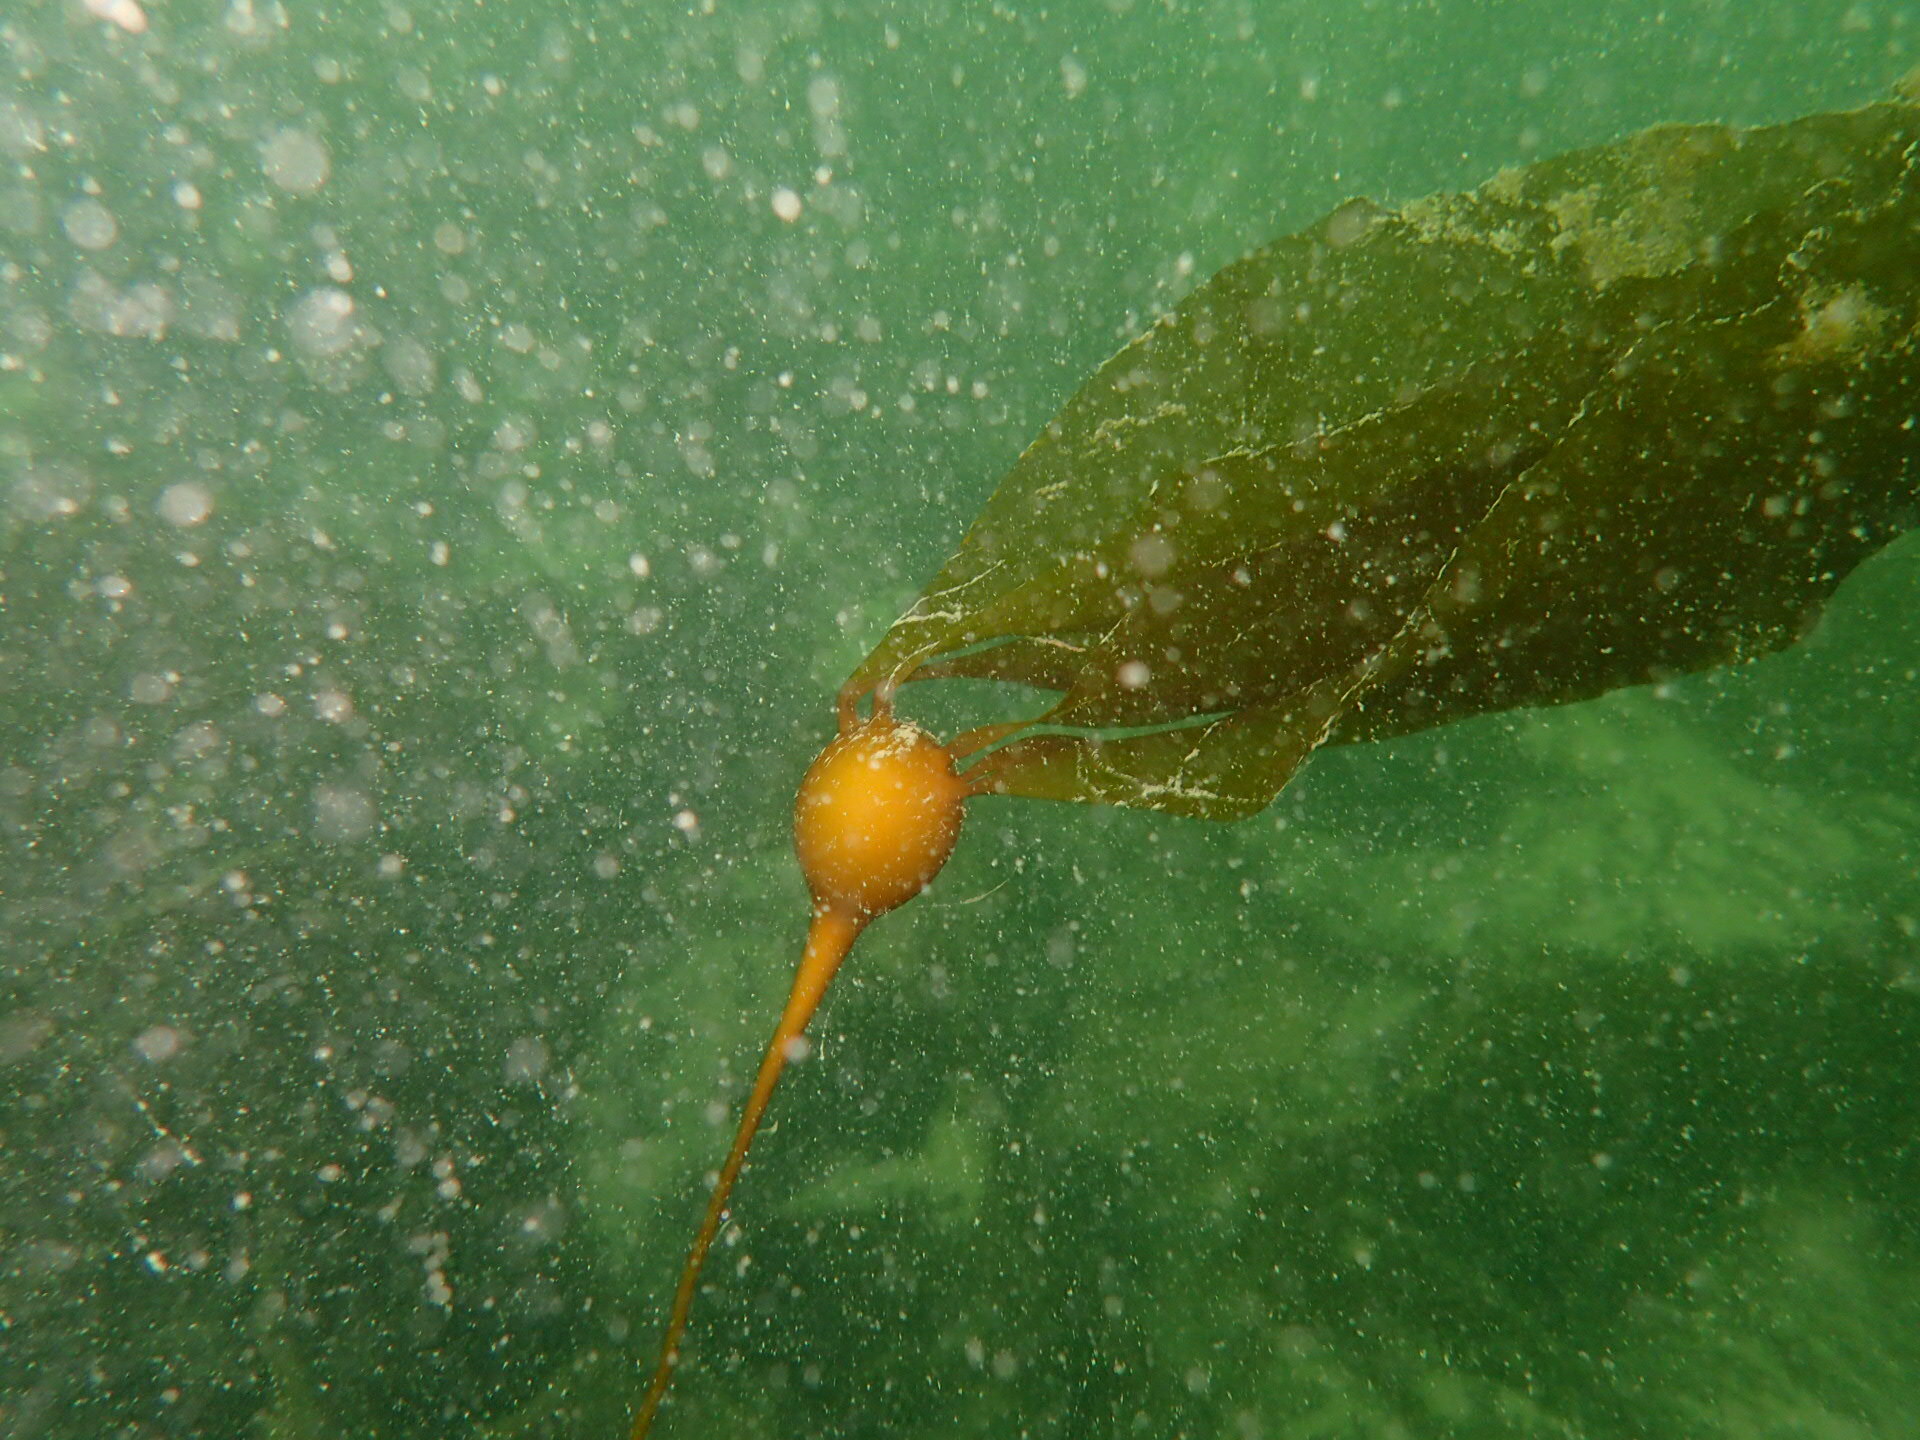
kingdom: Chromista
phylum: Ochrophyta
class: Phaeophyceae
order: Laminariales
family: Laminariaceae
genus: Nereocystis
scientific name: Nereocystis luetkeana
